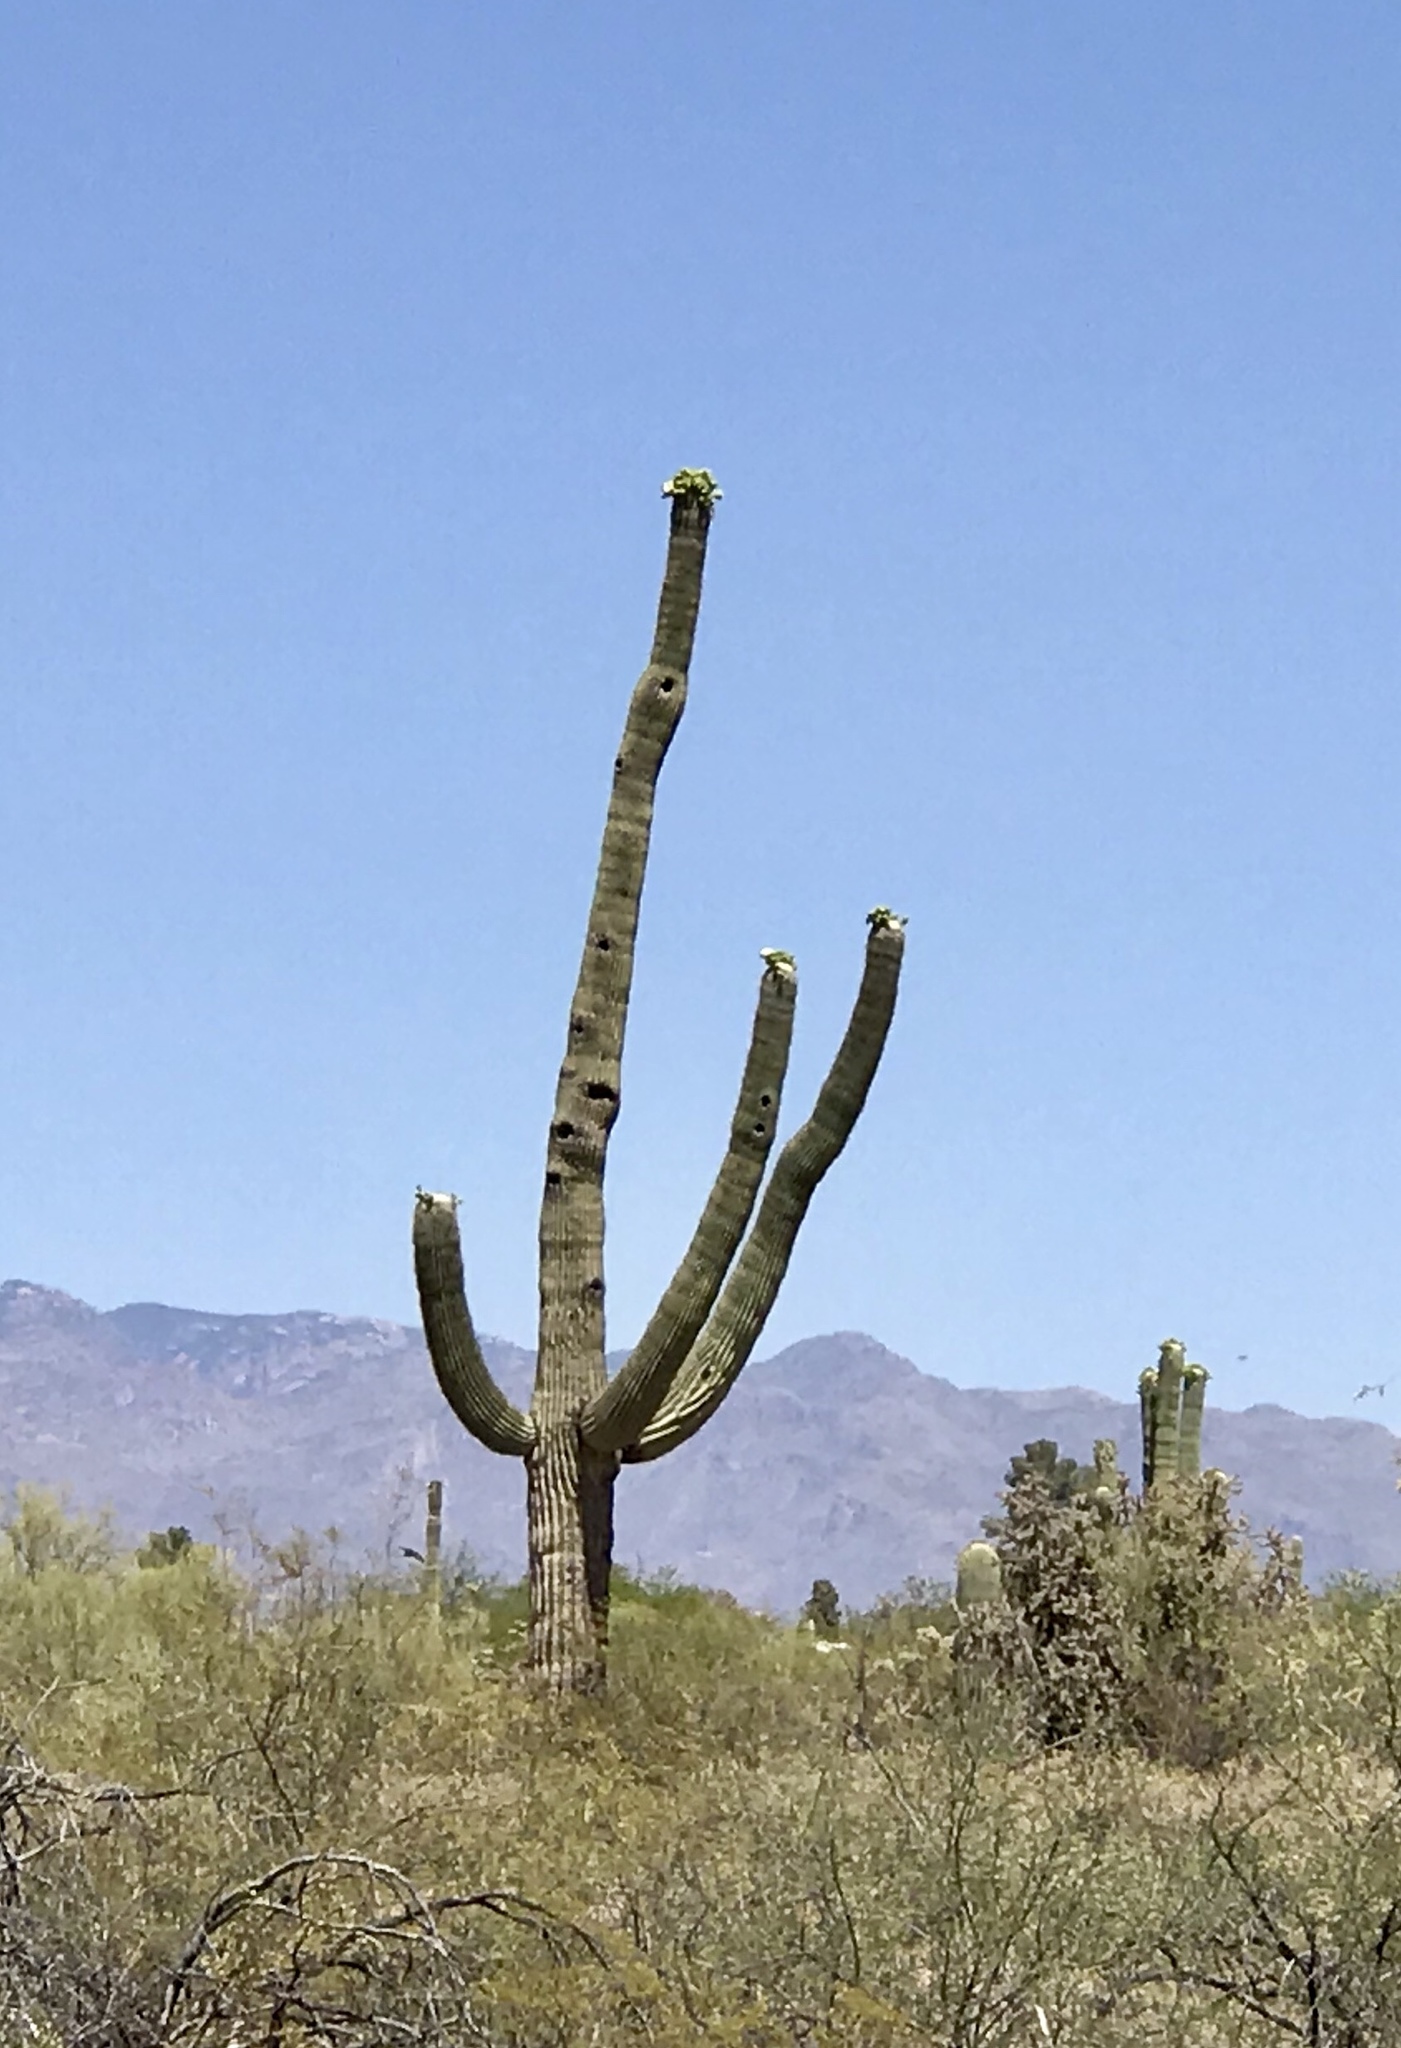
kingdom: Plantae
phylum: Tracheophyta
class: Magnoliopsida
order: Caryophyllales
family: Cactaceae
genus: Carnegiea
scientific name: Carnegiea gigantea
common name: Saguaro
